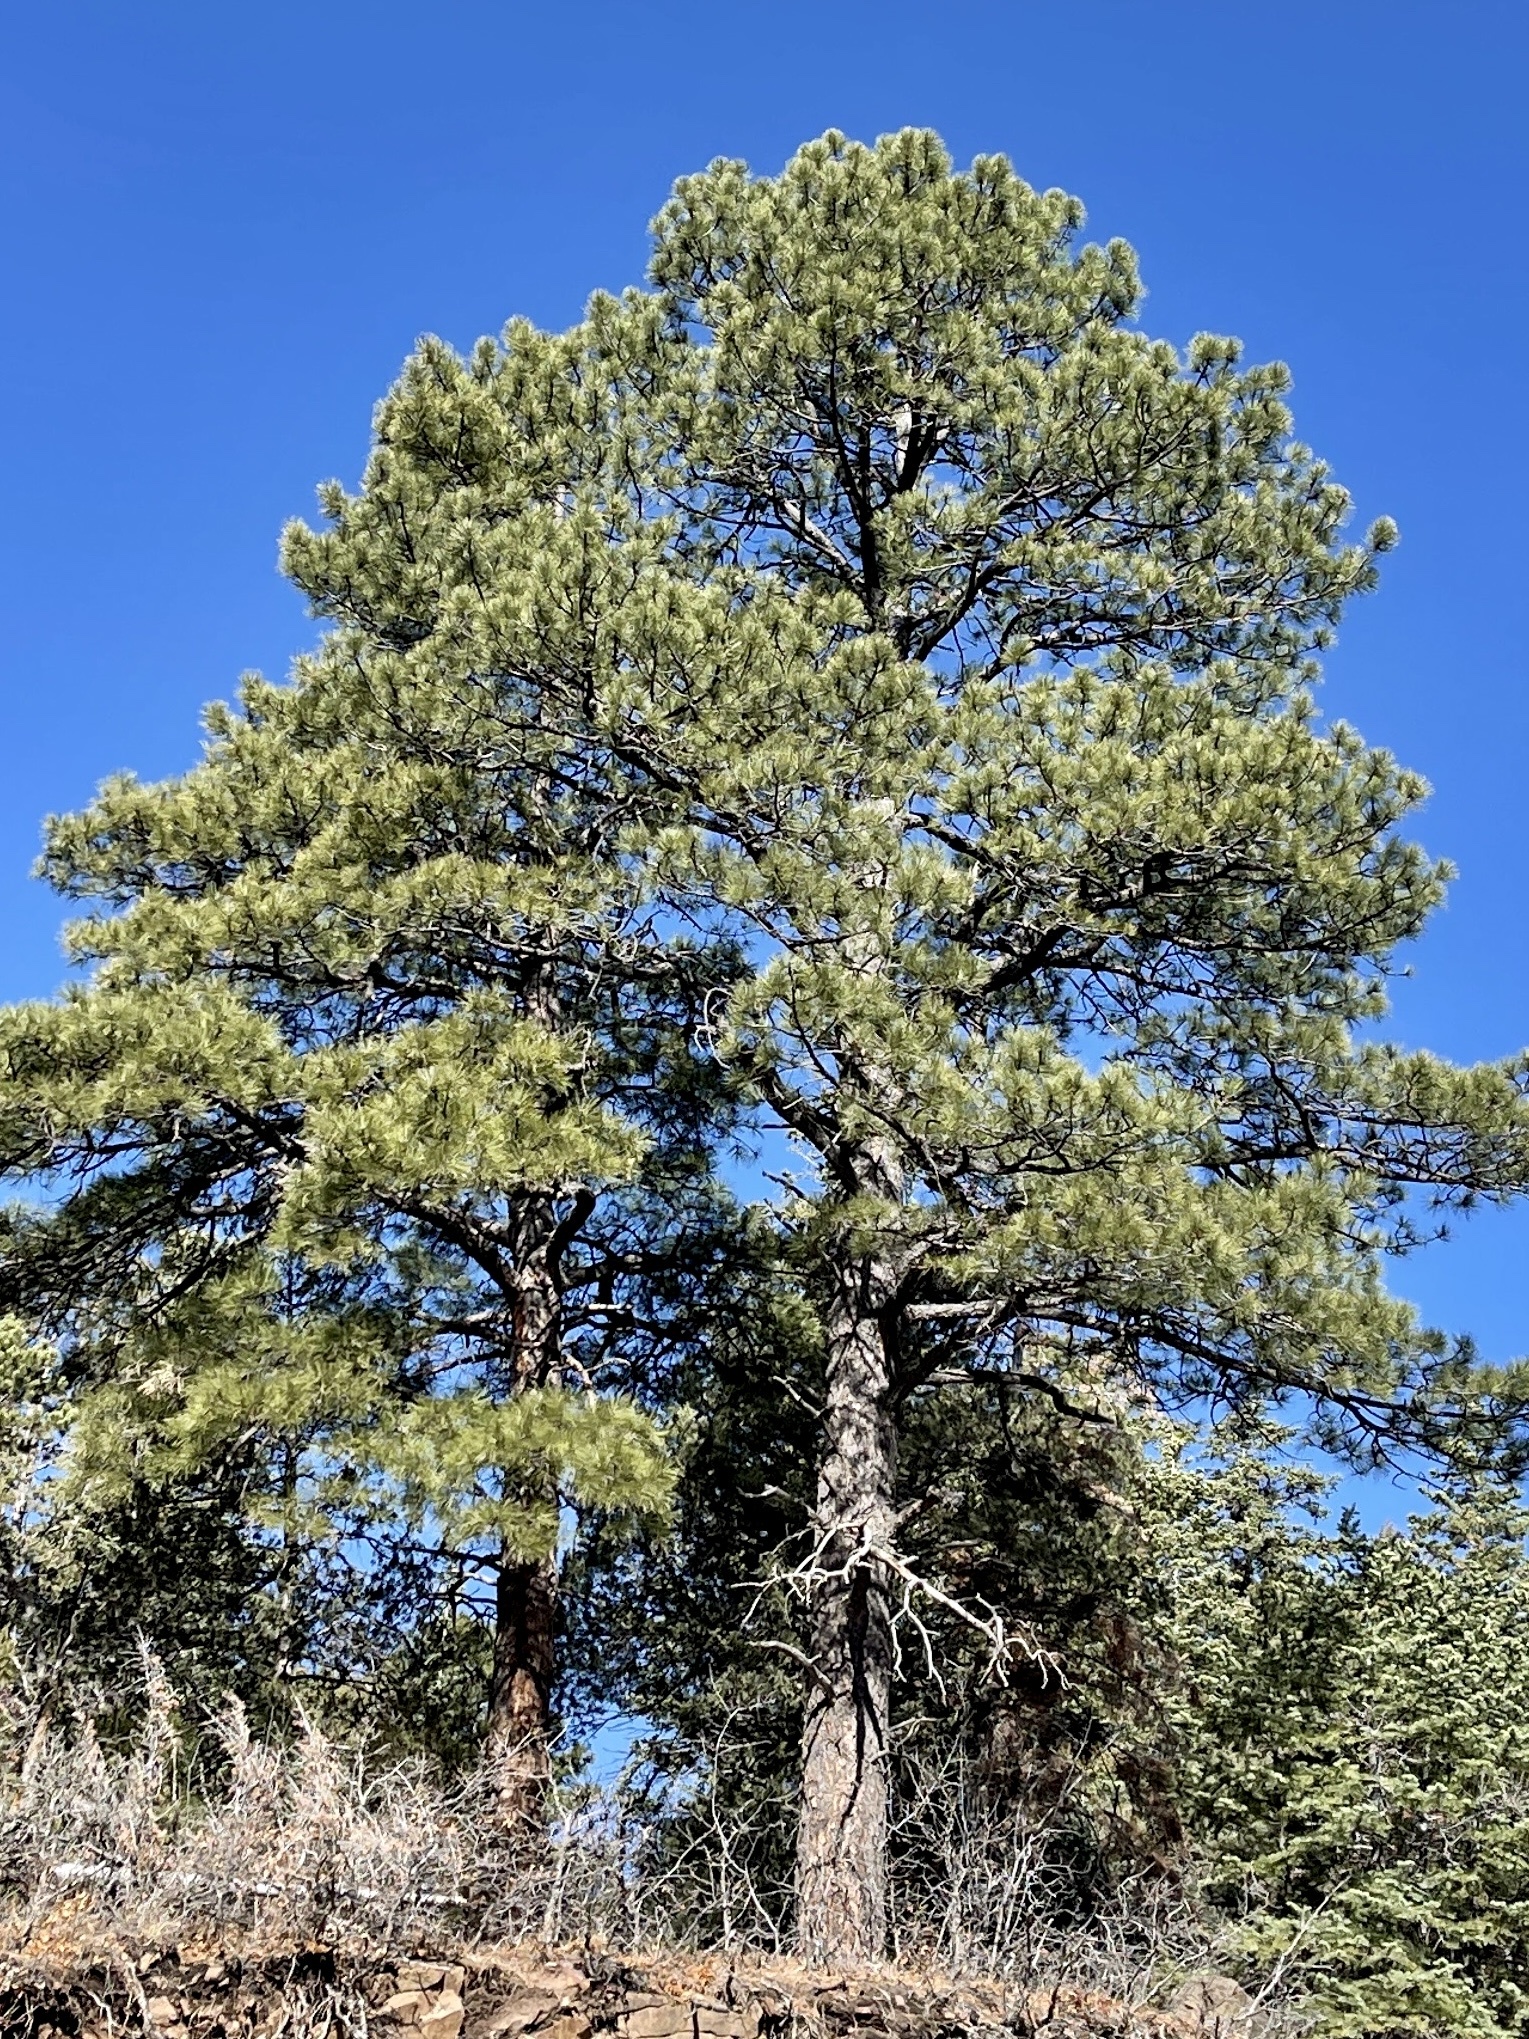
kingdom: Plantae
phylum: Tracheophyta
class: Pinopsida
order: Pinales
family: Pinaceae
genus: Pinus
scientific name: Pinus ponderosa
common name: Western yellow-pine
